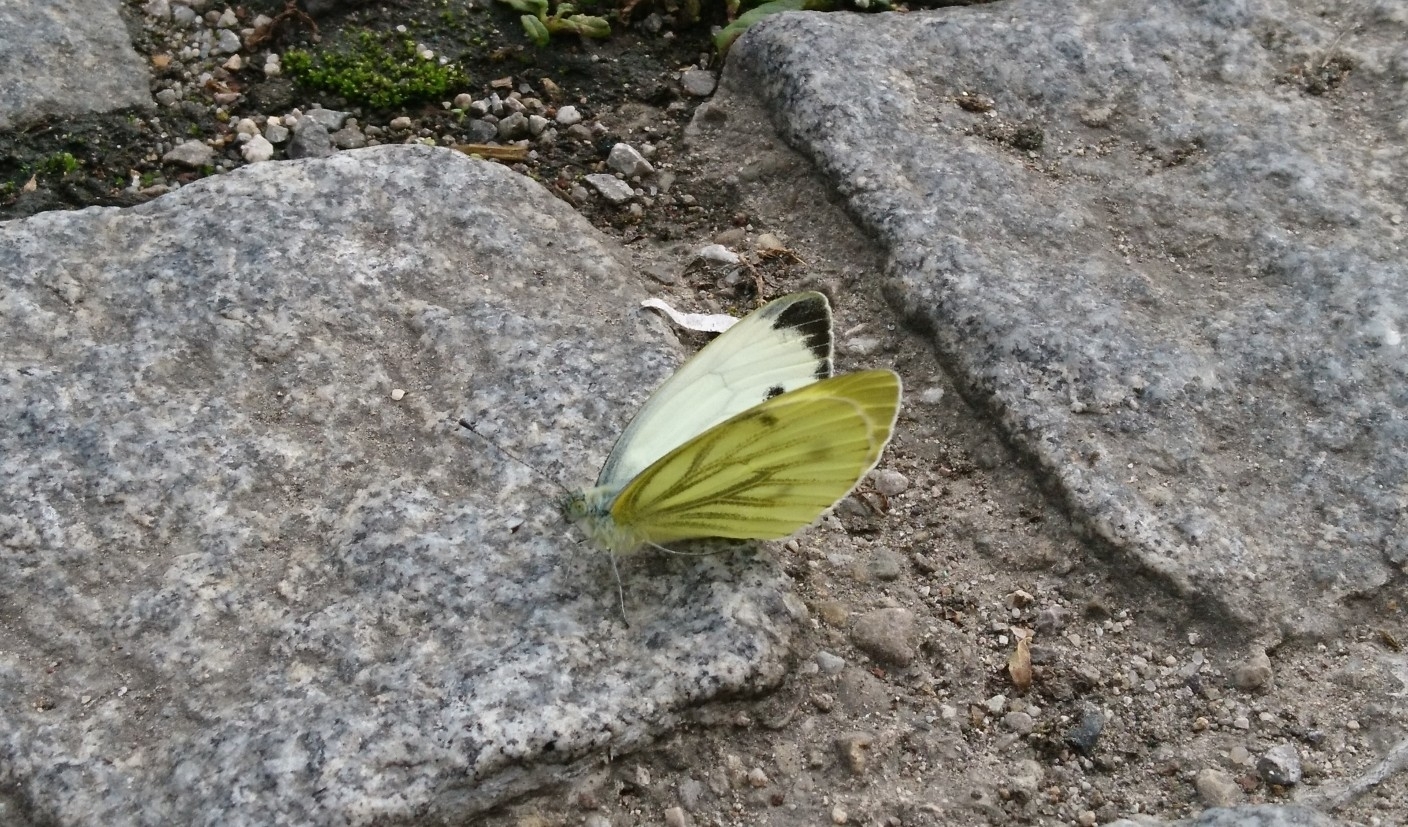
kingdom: Animalia
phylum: Arthropoda
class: Insecta
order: Lepidoptera
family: Pieridae
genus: Pieris
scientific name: Pieris napi
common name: Green-veined white
